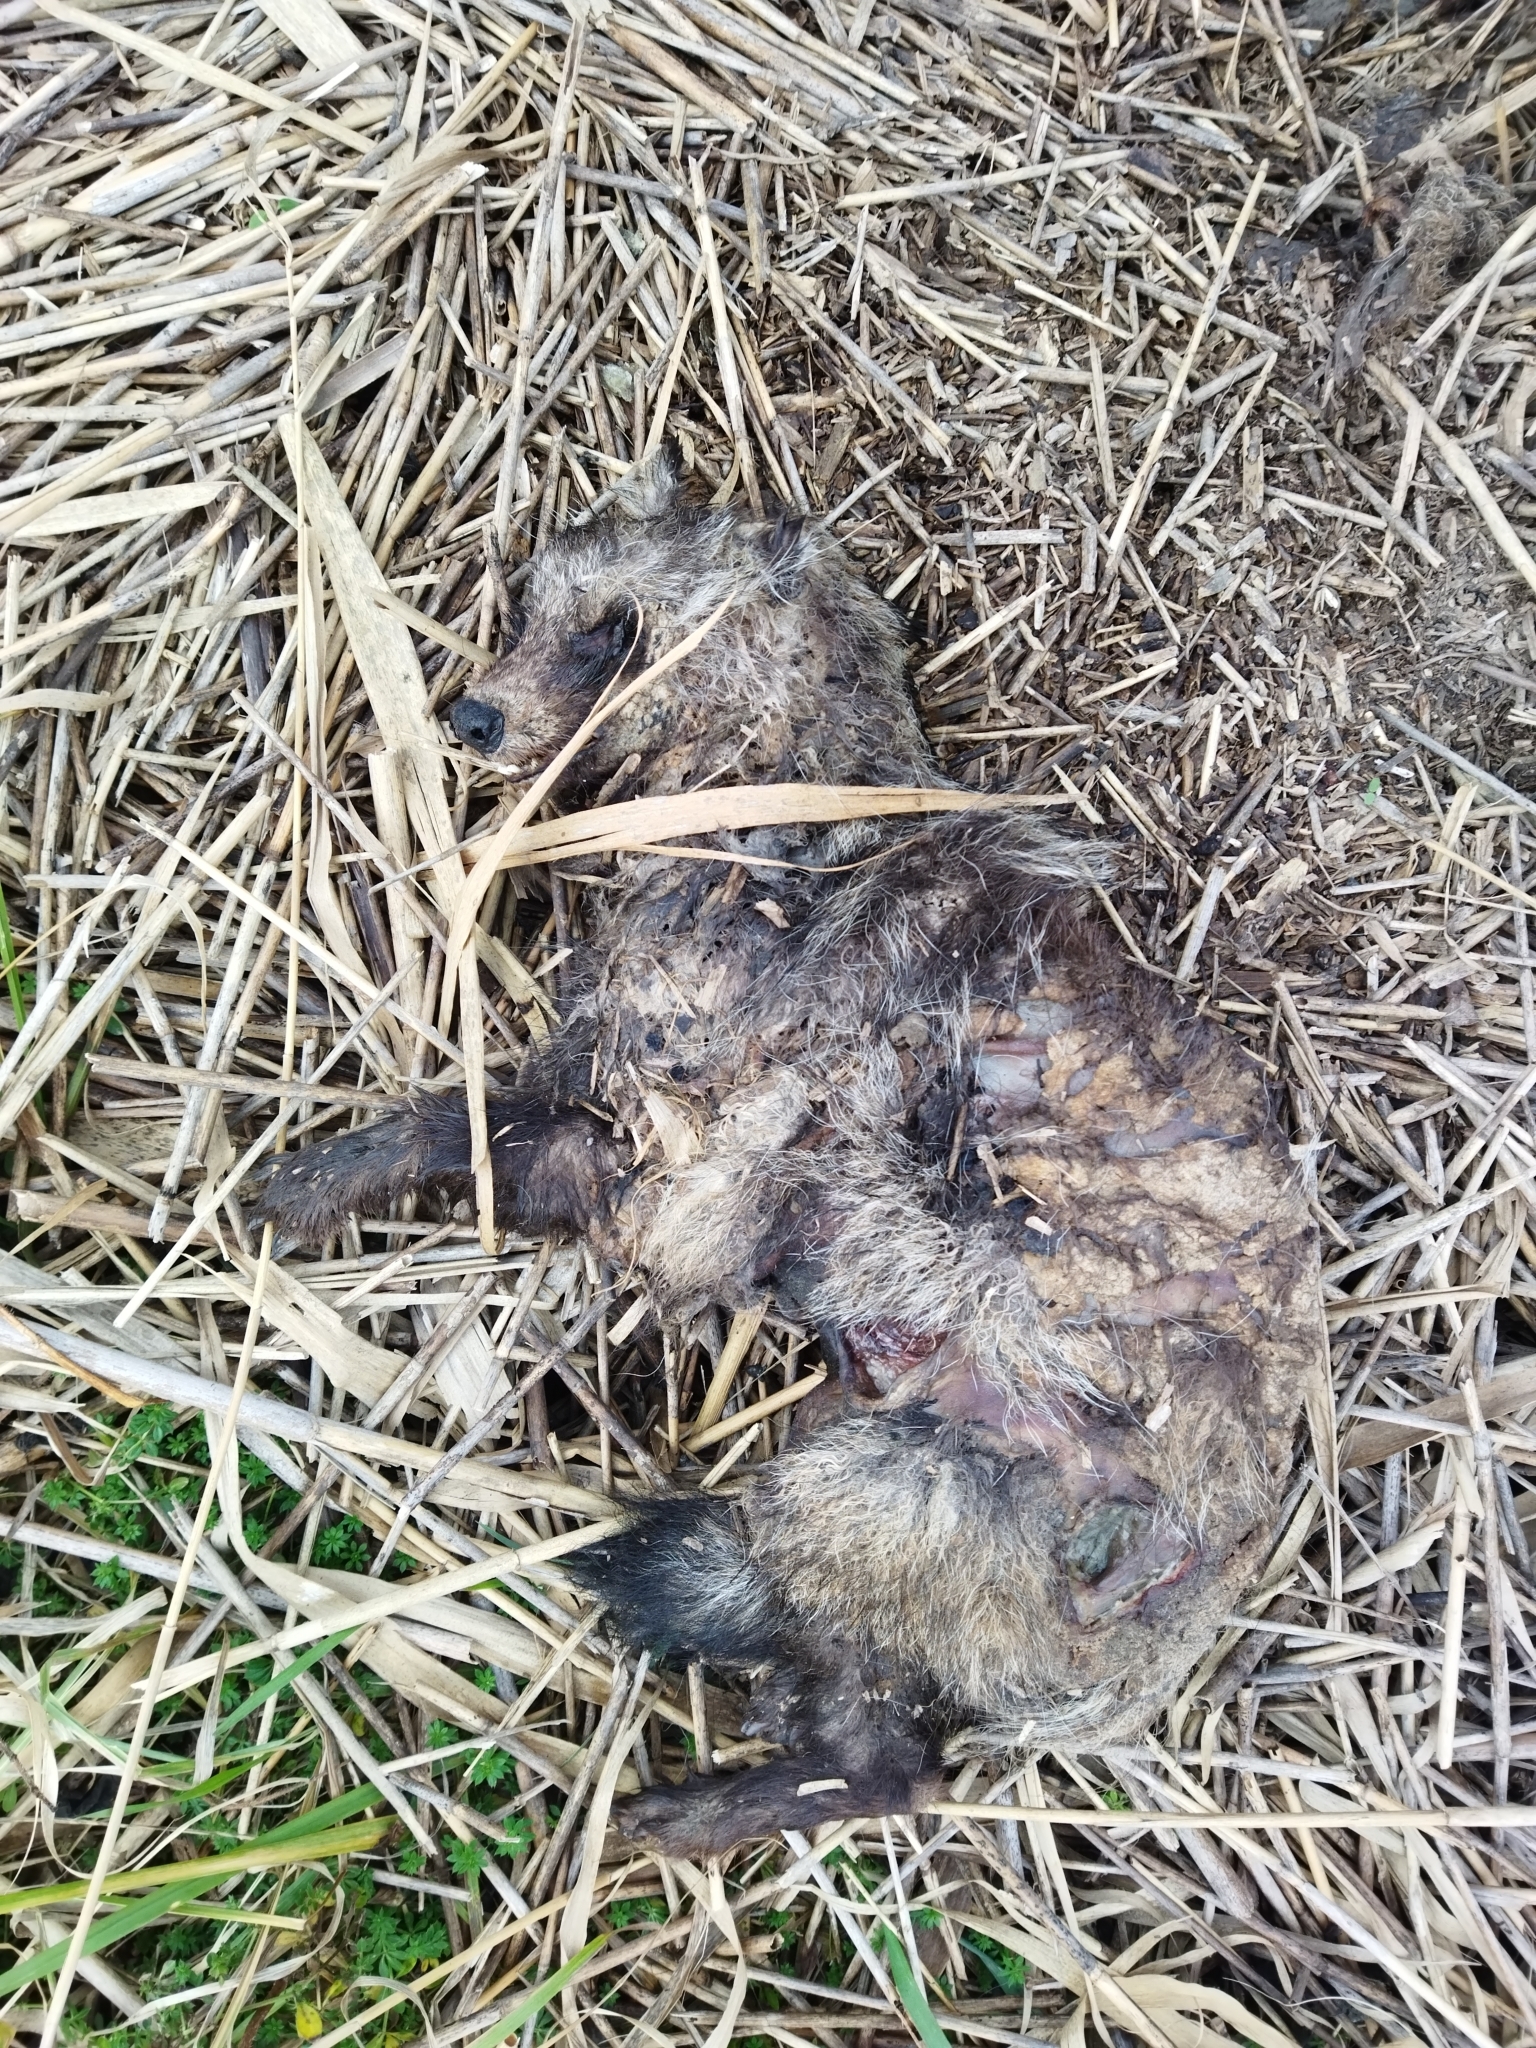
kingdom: Animalia
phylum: Chordata
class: Mammalia
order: Carnivora
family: Canidae
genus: Nyctereutes
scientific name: Nyctereutes procyonoides
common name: Raccoon dog
